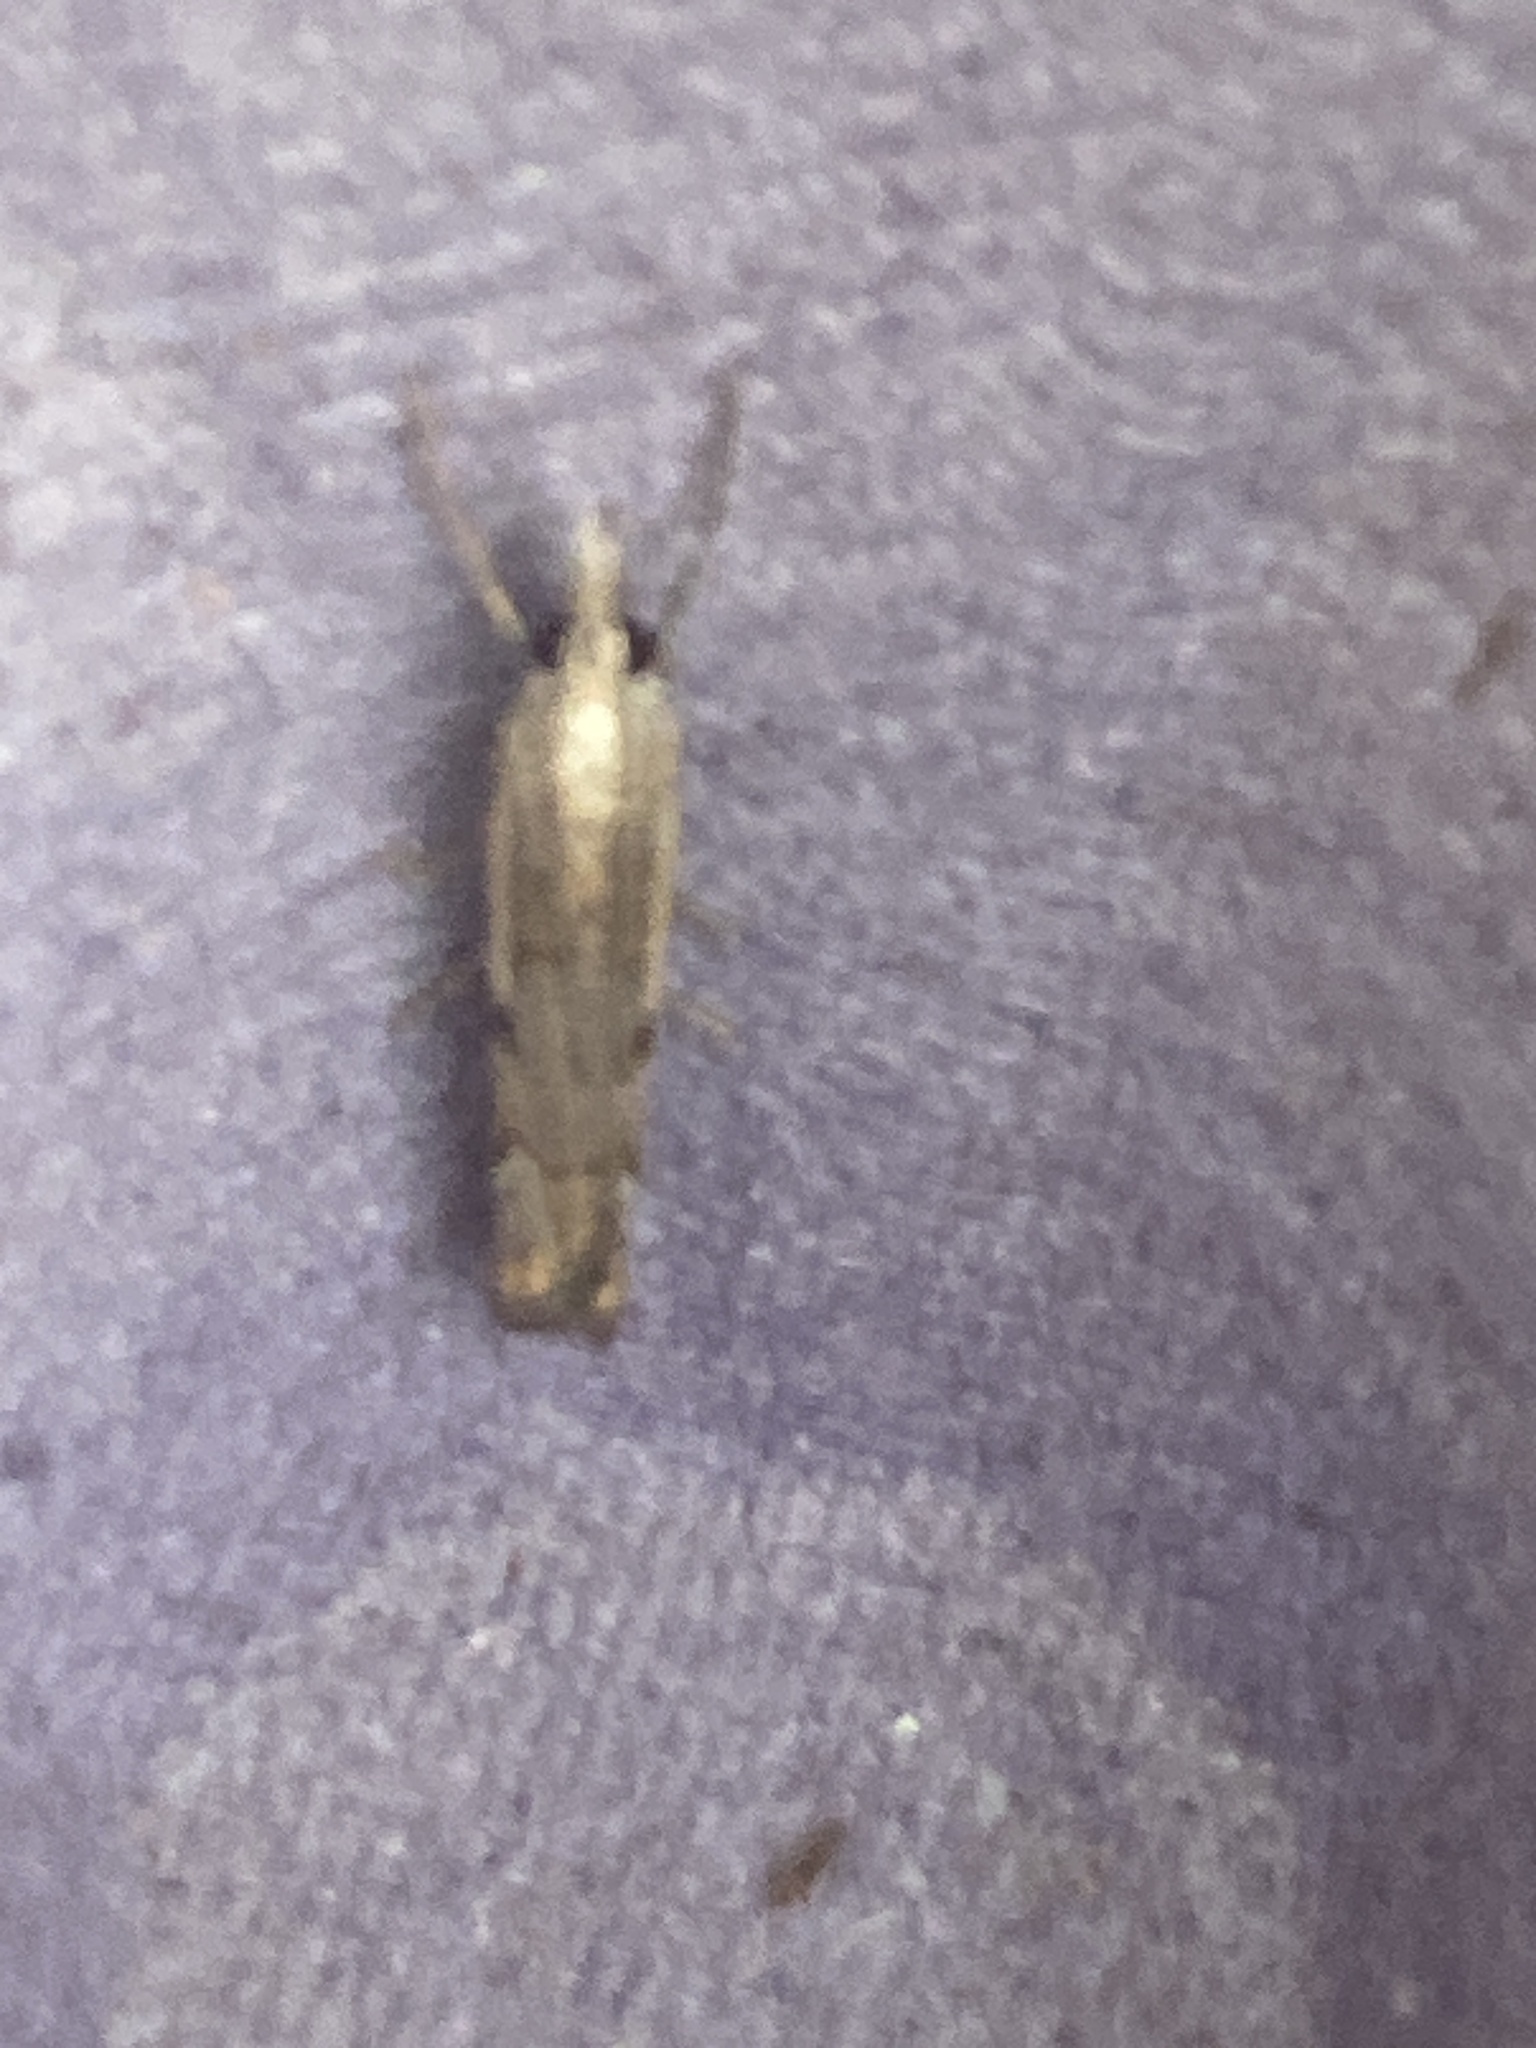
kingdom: Animalia
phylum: Arthropoda
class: Insecta
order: Lepidoptera
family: Crambidae
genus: Agriphila
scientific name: Agriphila geniculea
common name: Elbow-stripe grass-veneer
